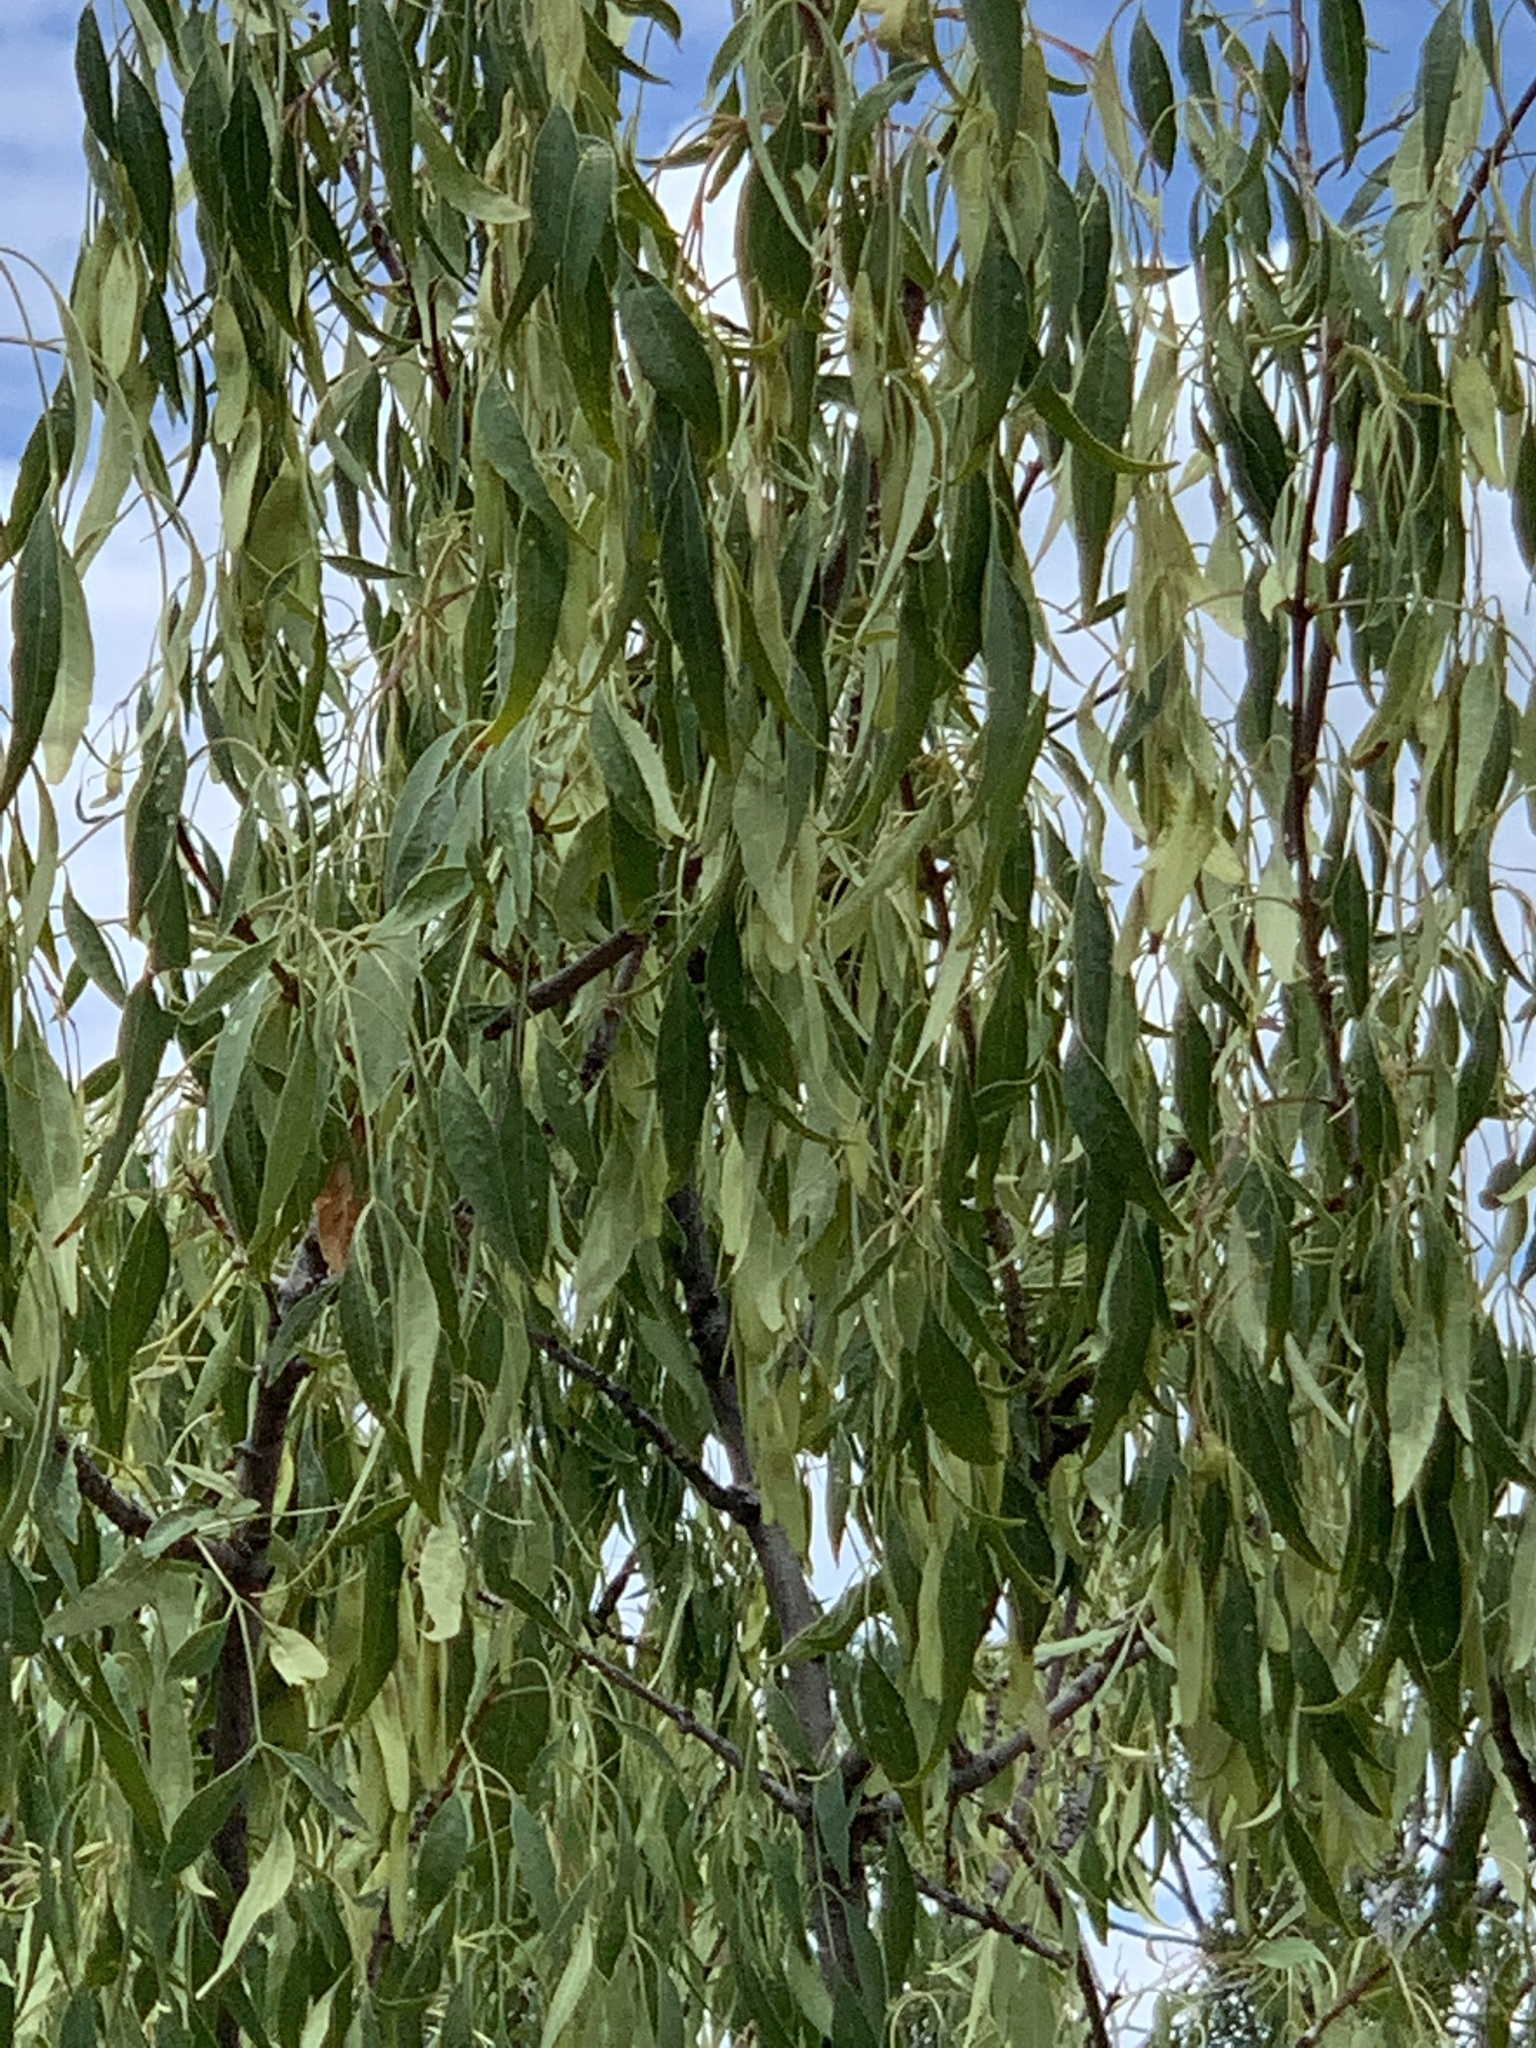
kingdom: Plantae
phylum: Tracheophyta
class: Magnoliopsida
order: Lamiales
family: Oleaceae
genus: Fraxinus
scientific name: Fraxinus cuspidata
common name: Fragrant ash
